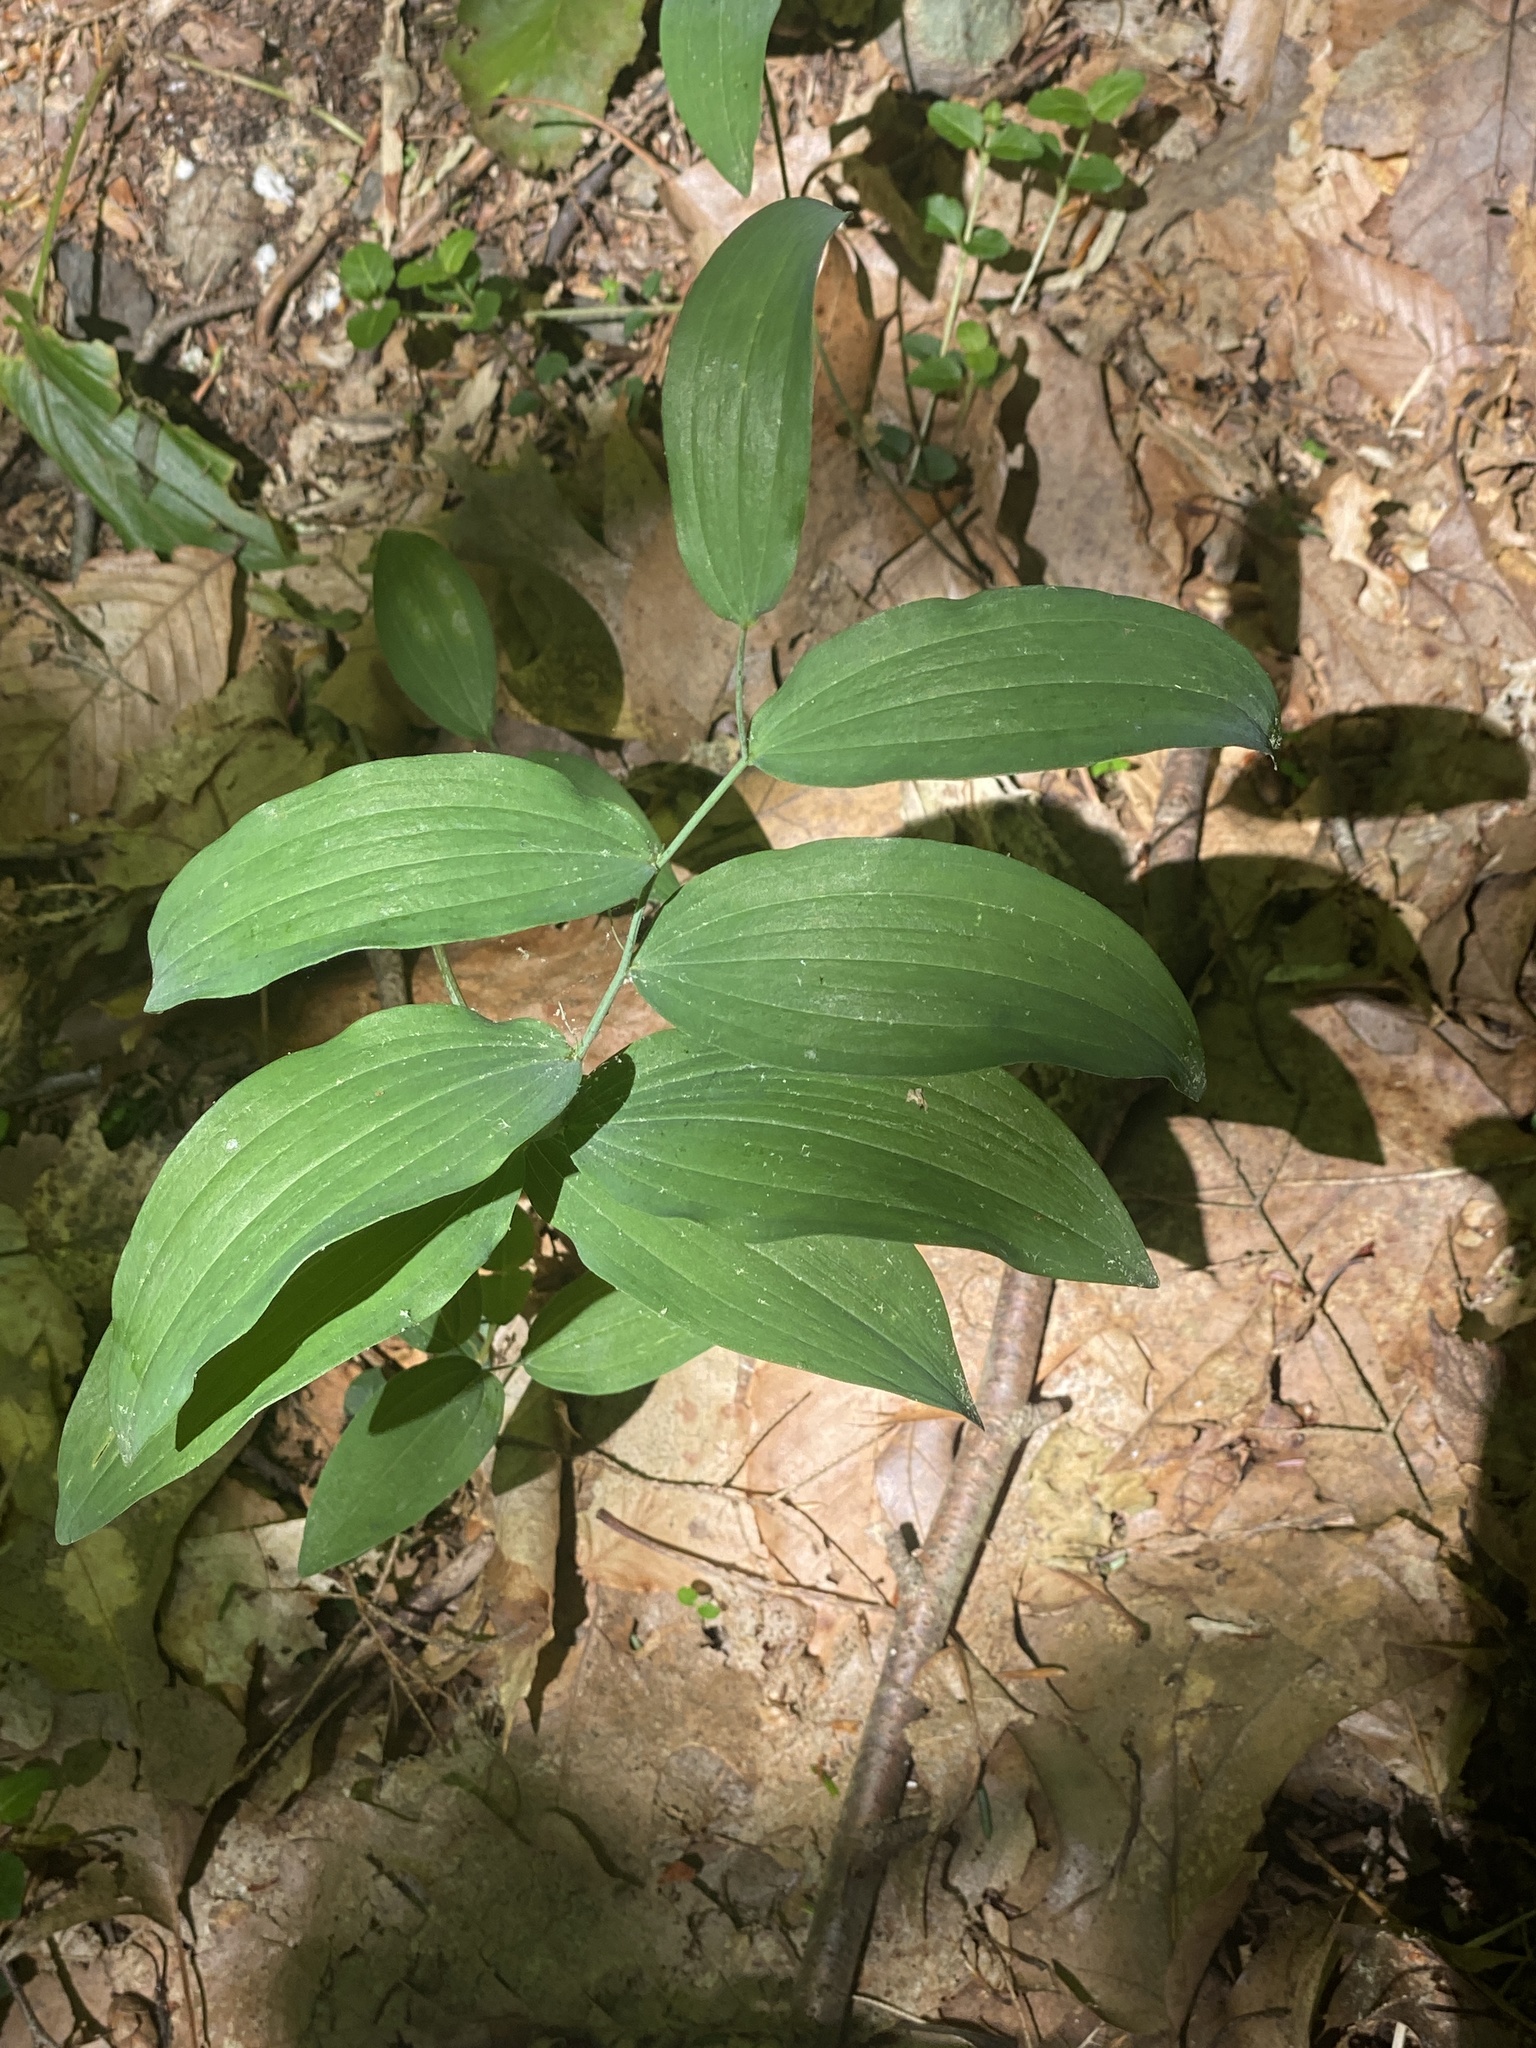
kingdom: Plantae
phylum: Tracheophyta
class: Liliopsida
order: Asparagales
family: Asparagaceae
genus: Polygonatum
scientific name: Polygonatum
